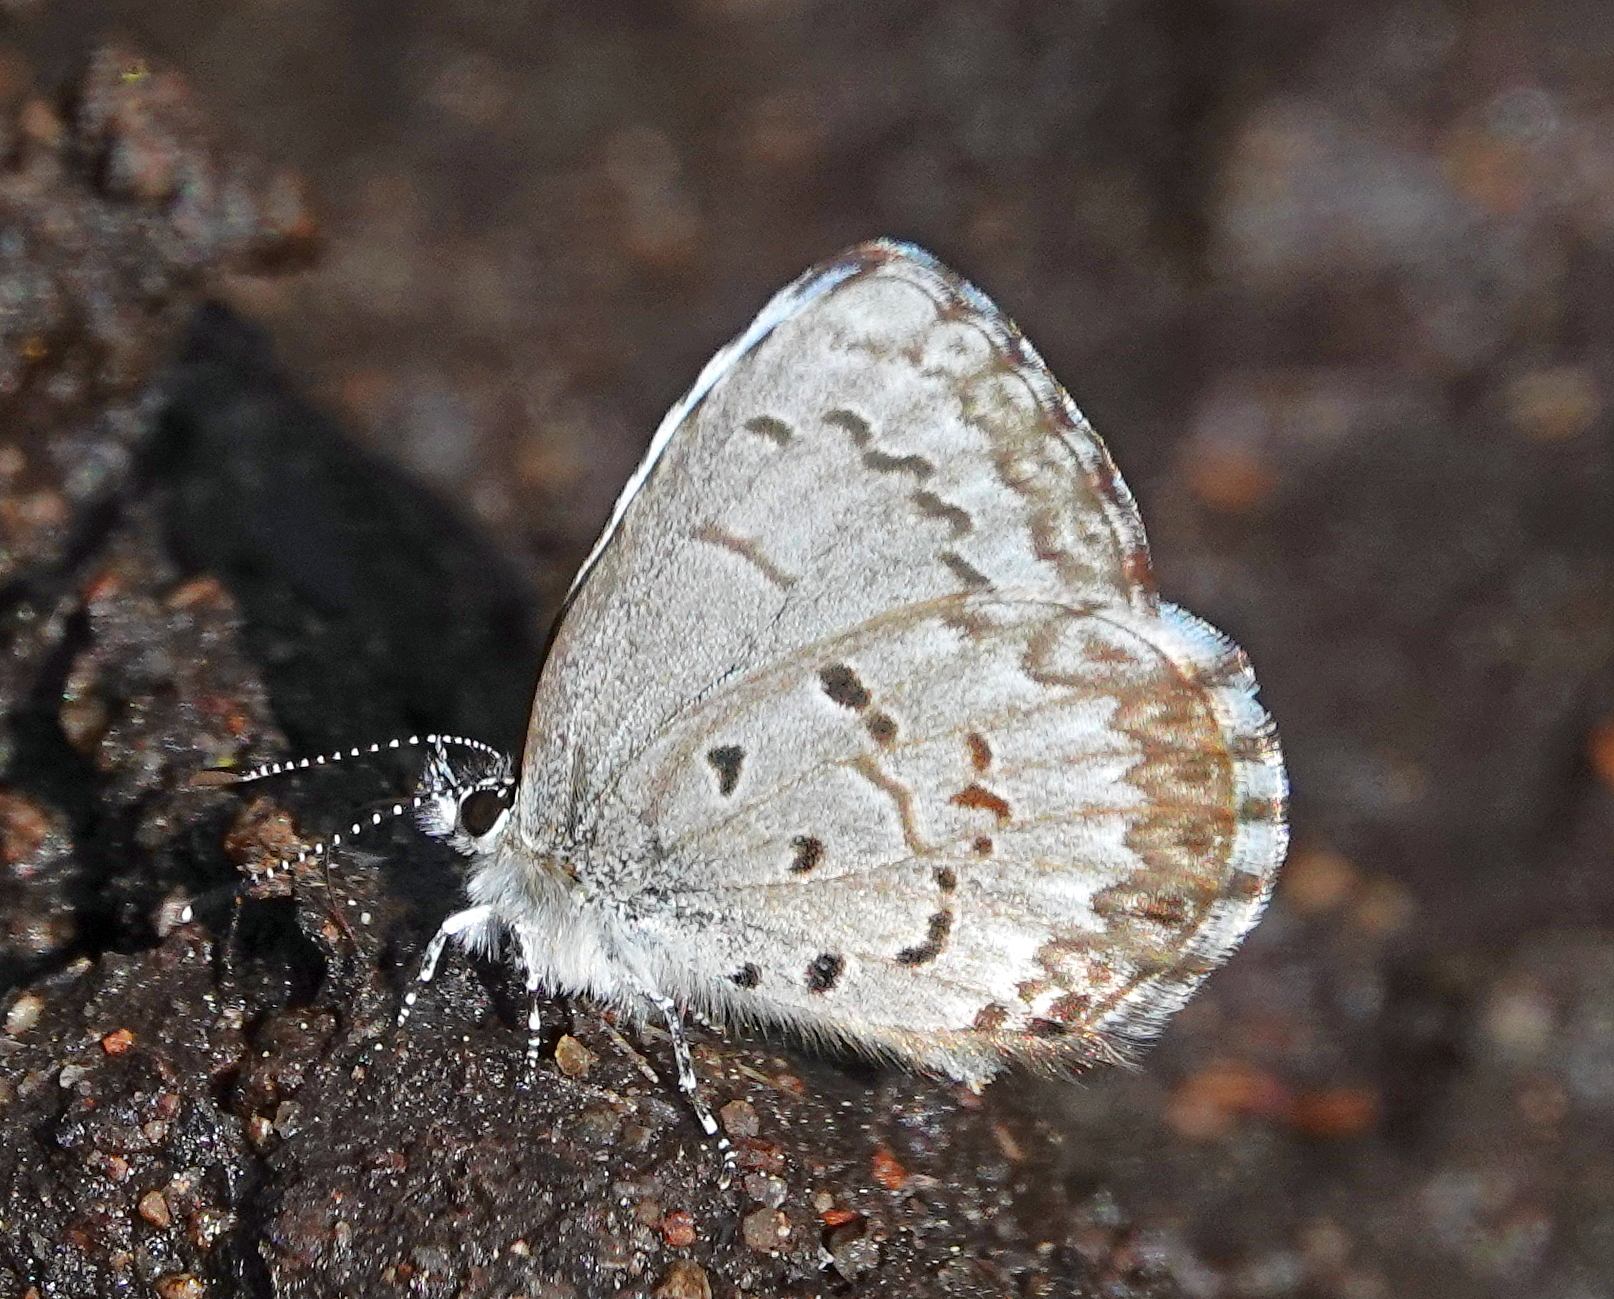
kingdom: Animalia
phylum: Arthropoda
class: Insecta
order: Lepidoptera
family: Lycaenidae
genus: Celastrina
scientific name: Celastrina lucia
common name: Lucia azure
